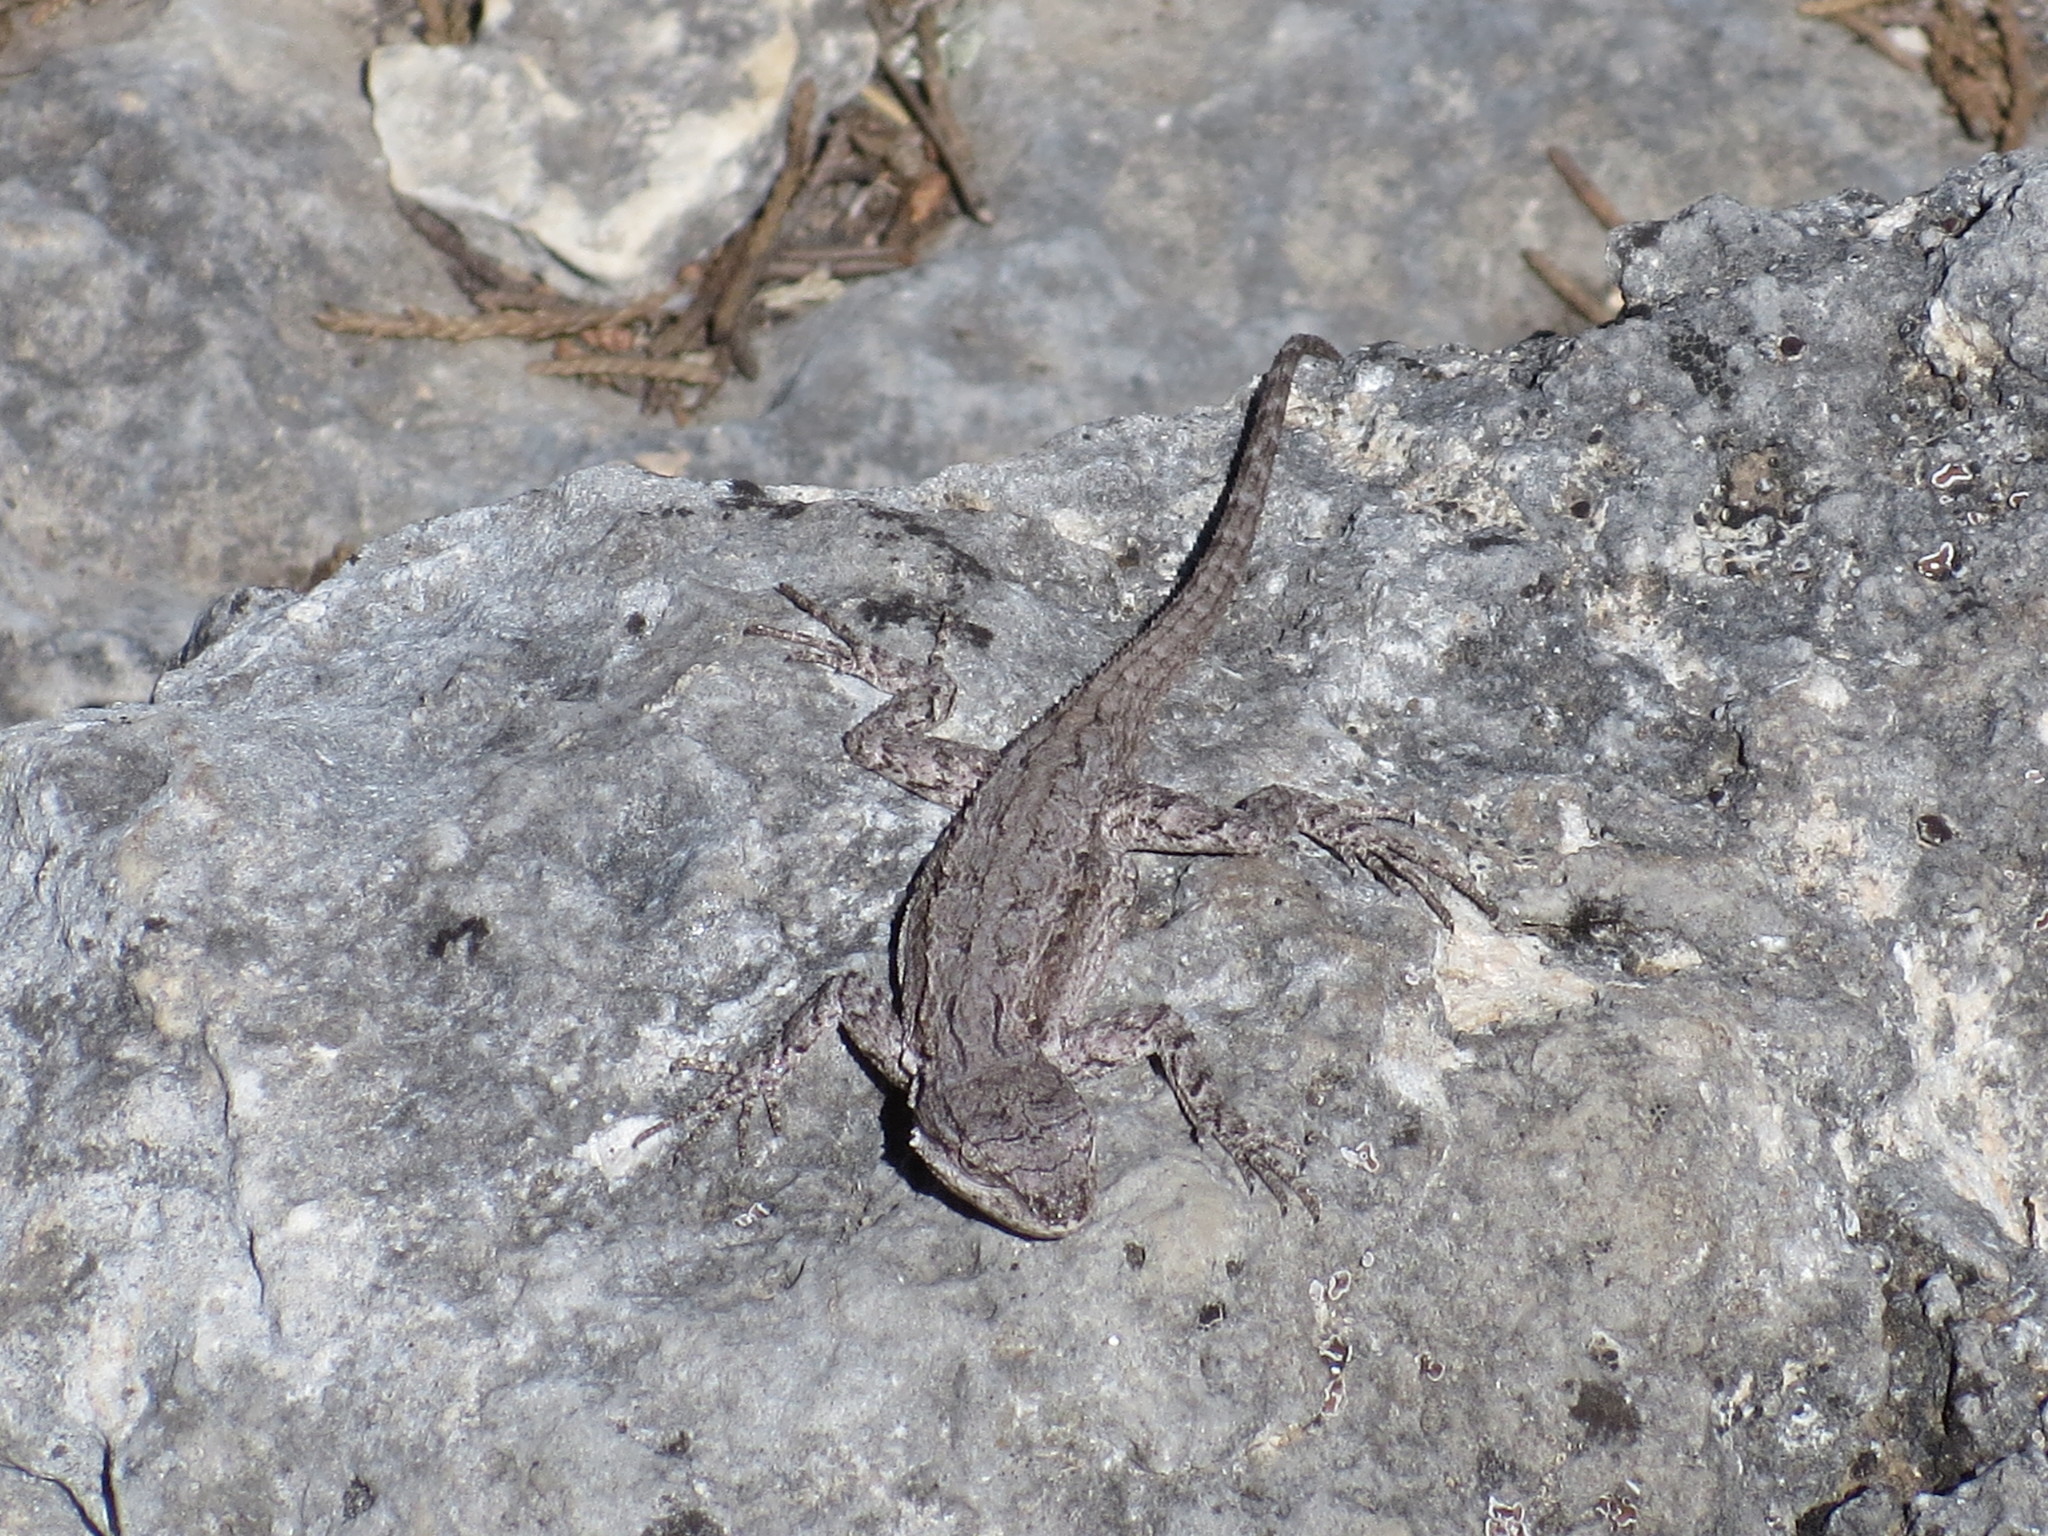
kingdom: Animalia
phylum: Chordata
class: Squamata
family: Phrynosomatidae
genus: Urosaurus
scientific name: Urosaurus ornatus
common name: Ornate tree lizard
